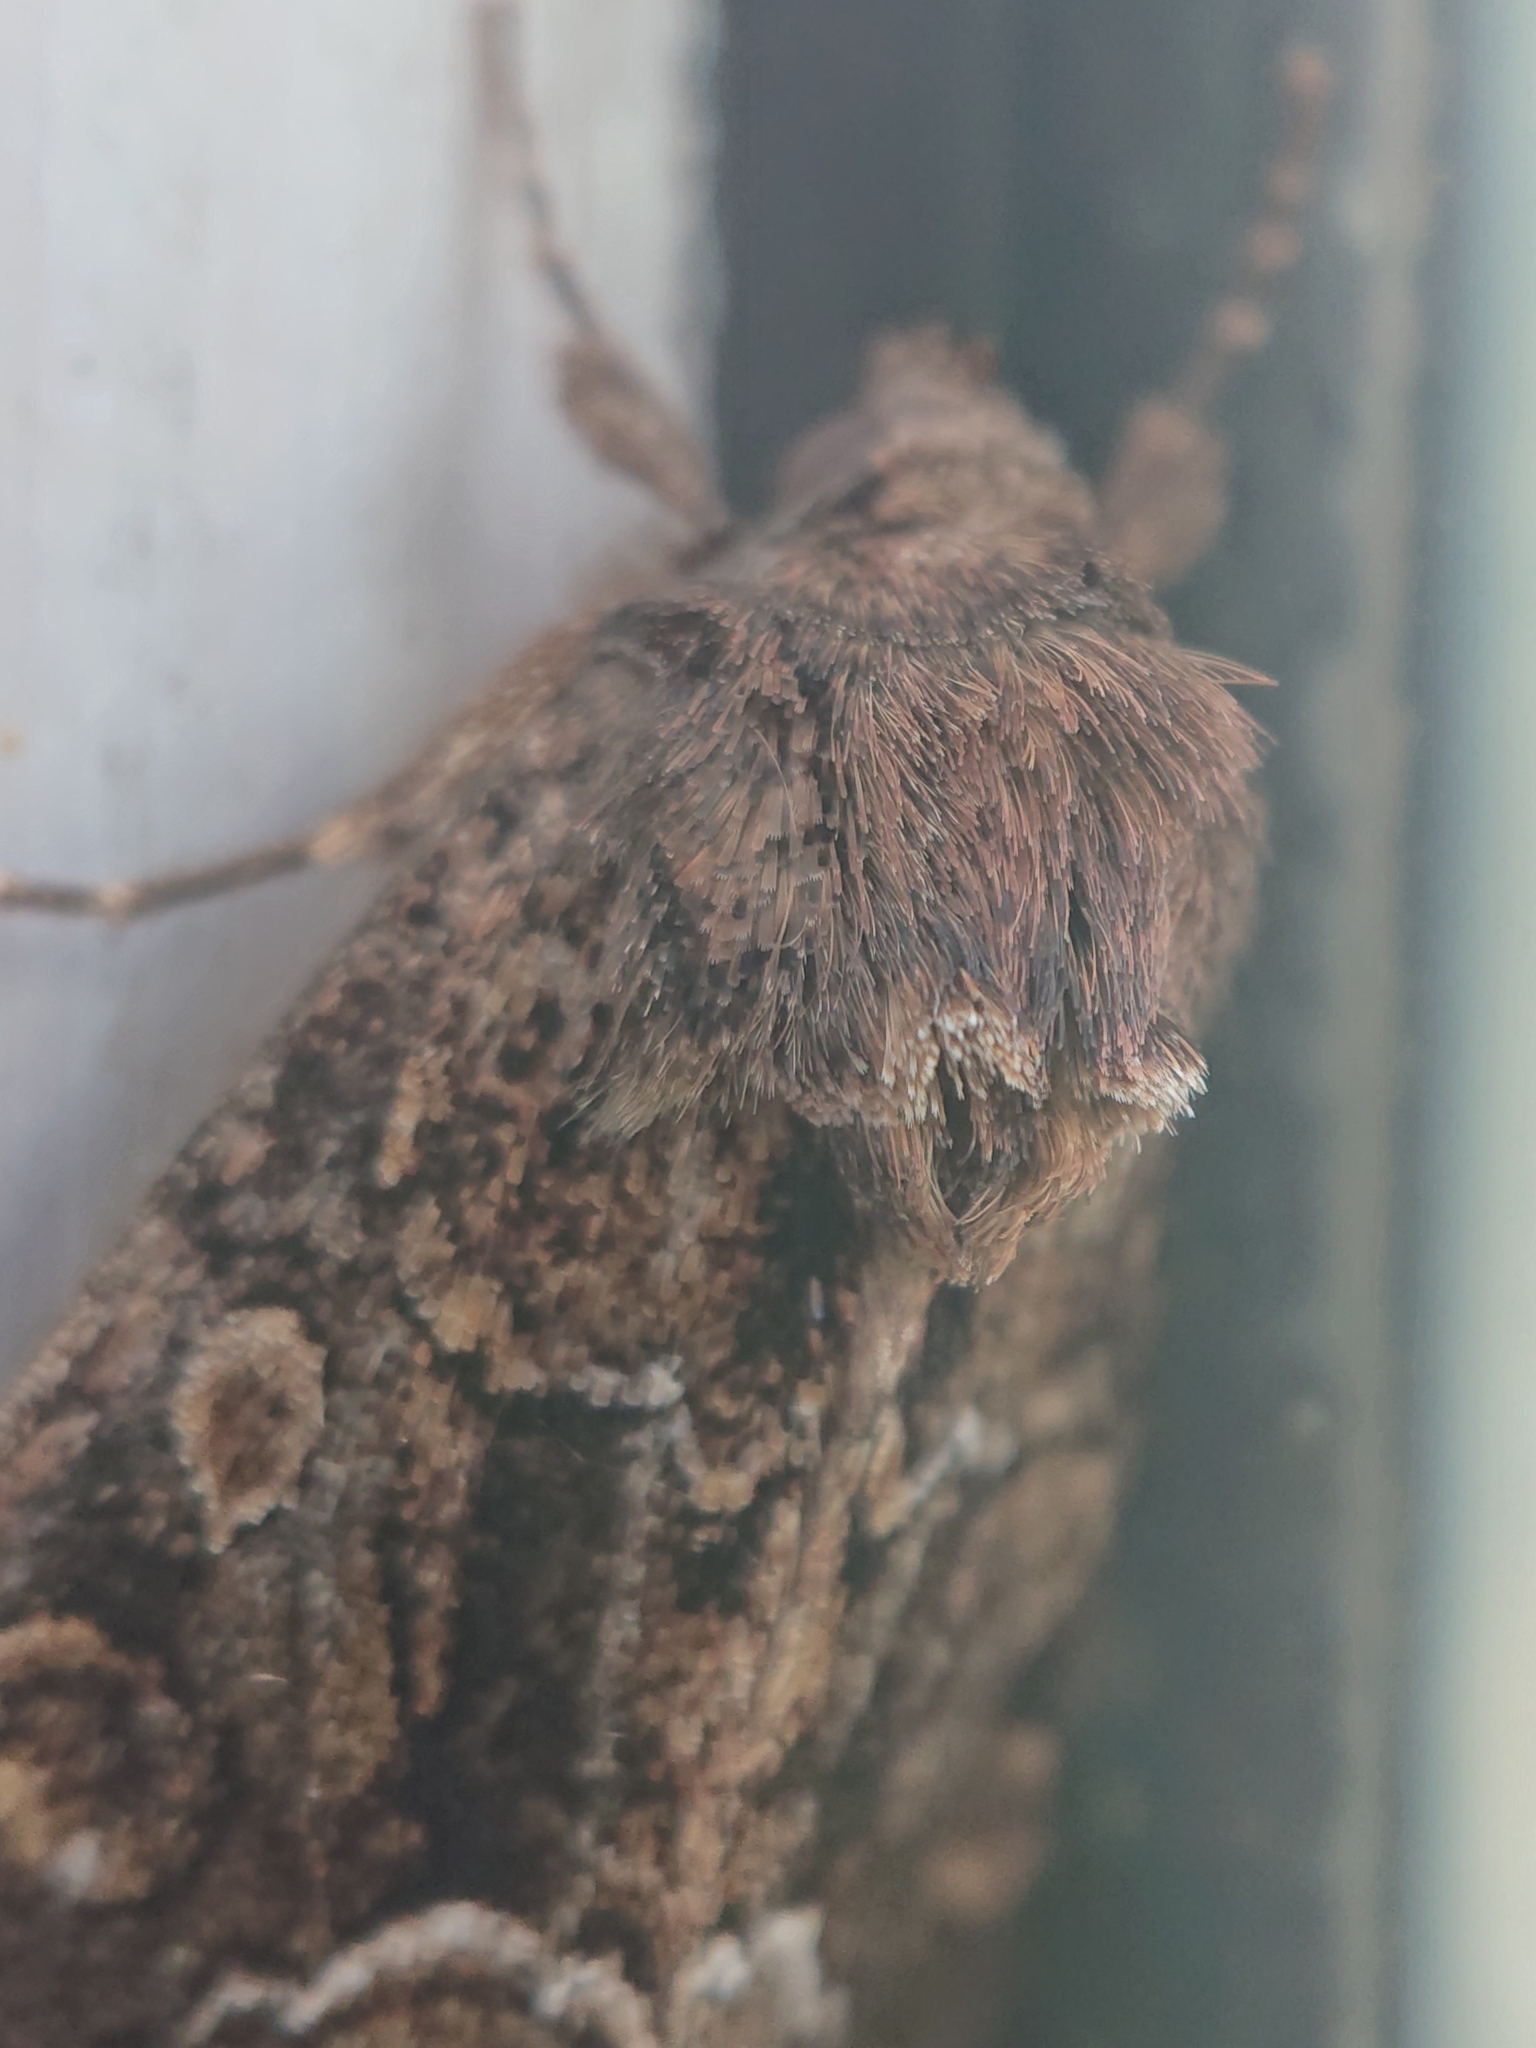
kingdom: Animalia
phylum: Arthropoda
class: Insecta
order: Lepidoptera
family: Noctuidae
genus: Thalpophila
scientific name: Thalpophila matura
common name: Straw underwing
